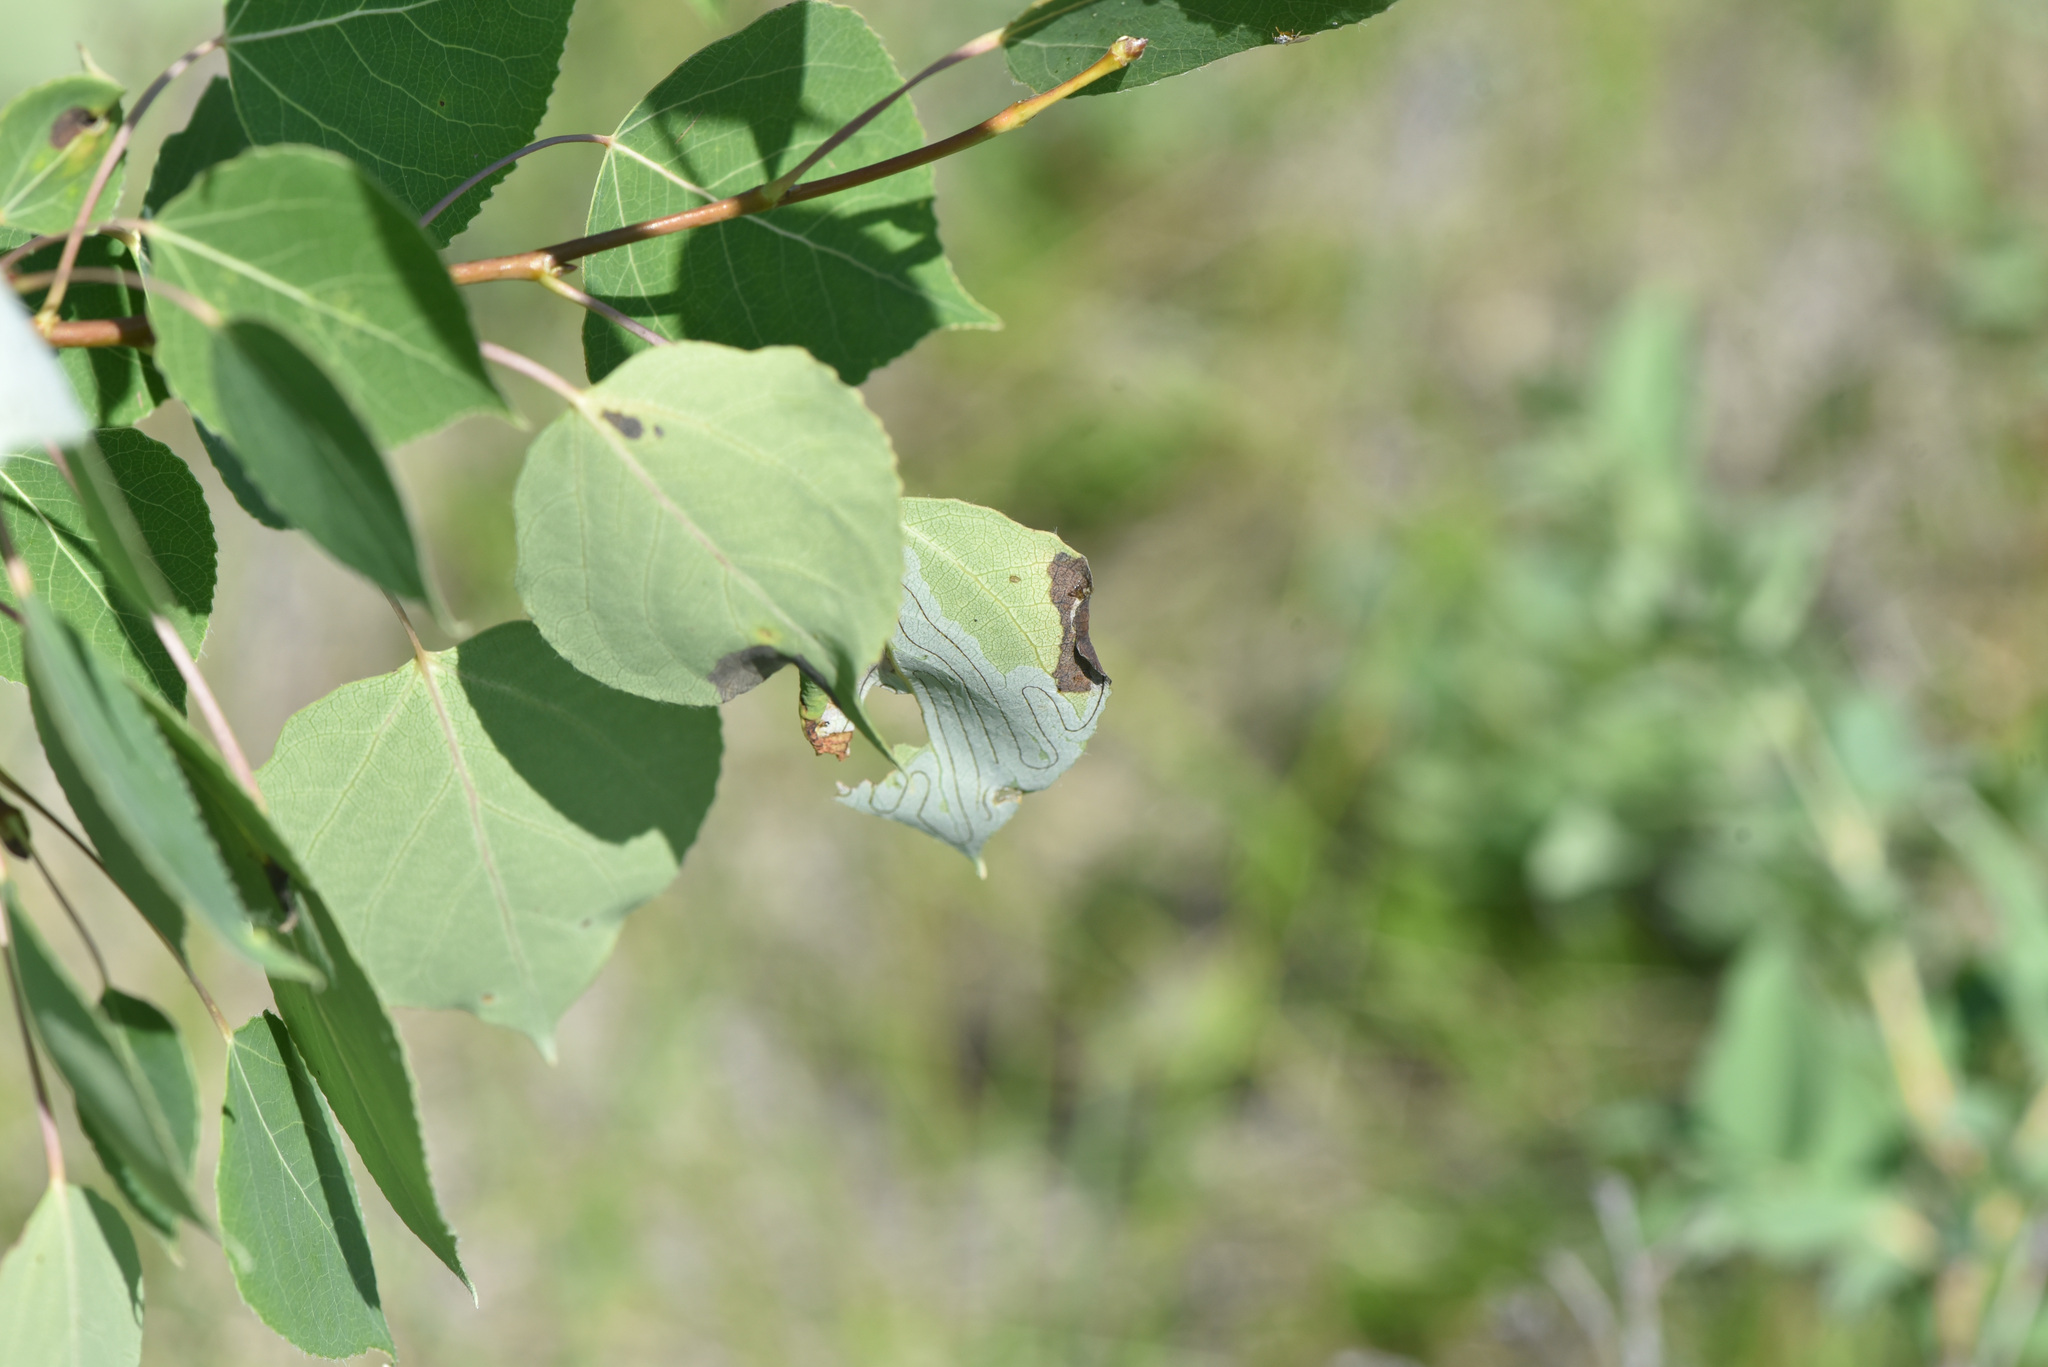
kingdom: Animalia
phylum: Arthropoda
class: Insecta
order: Lepidoptera
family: Gracillariidae
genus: Phyllocnistis
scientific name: Phyllocnistis populiella
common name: Aspen serpentine leafminer moth
